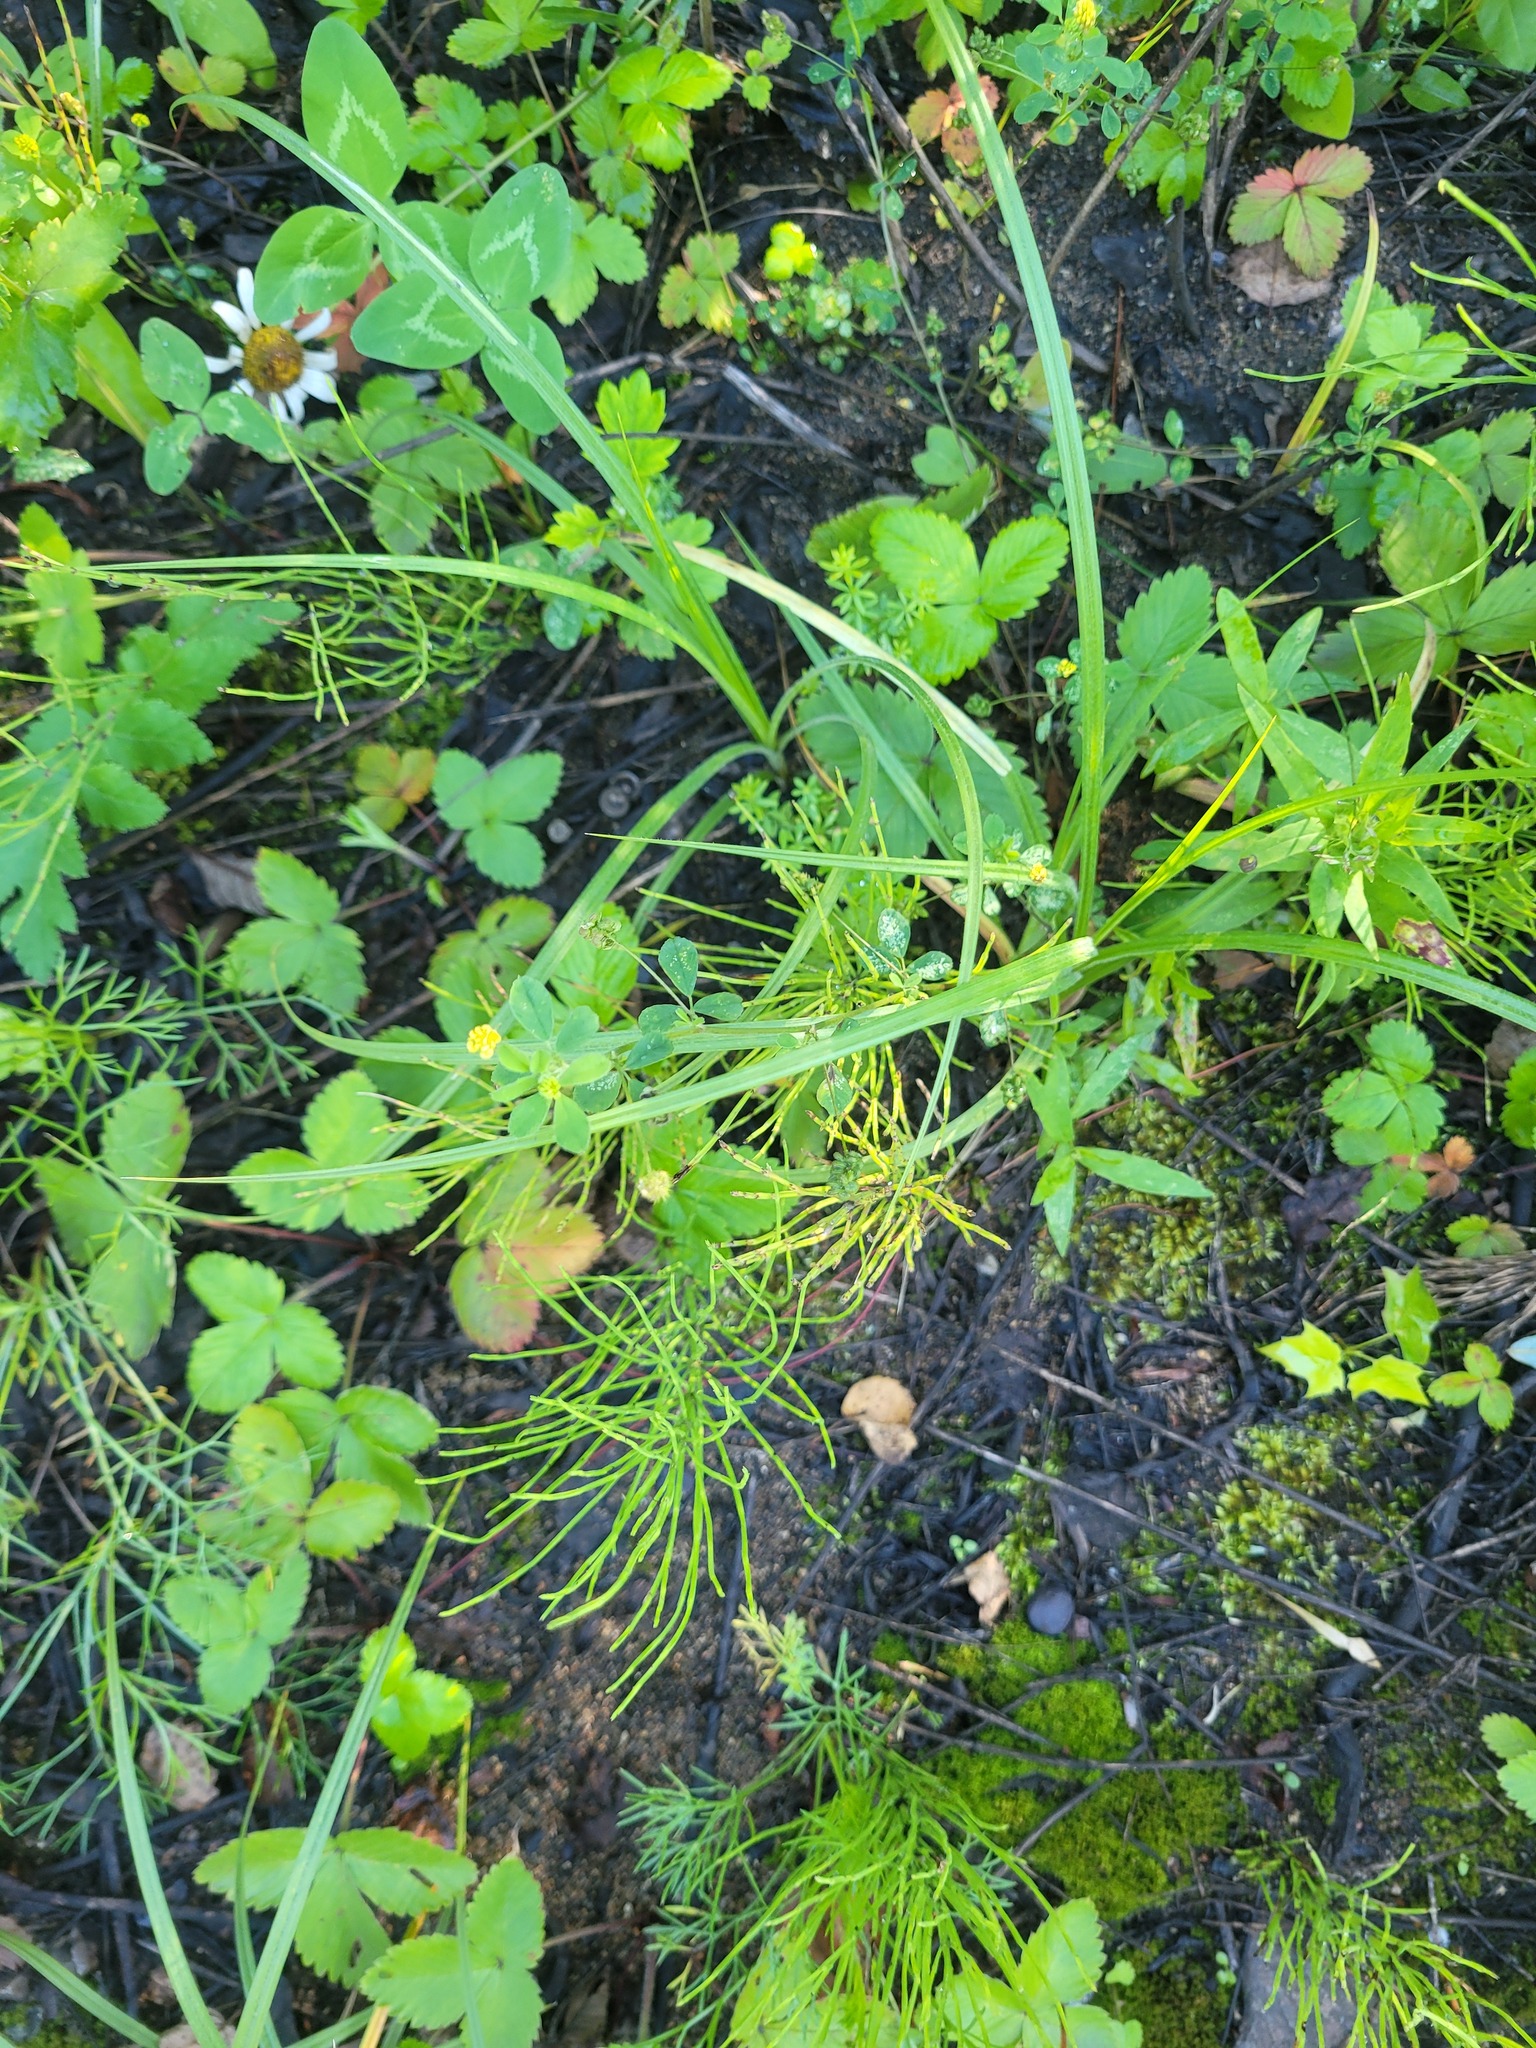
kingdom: Plantae
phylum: Tracheophyta
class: Magnoliopsida
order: Fabales
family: Fabaceae
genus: Medicago
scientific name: Medicago lupulina
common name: Black medick
